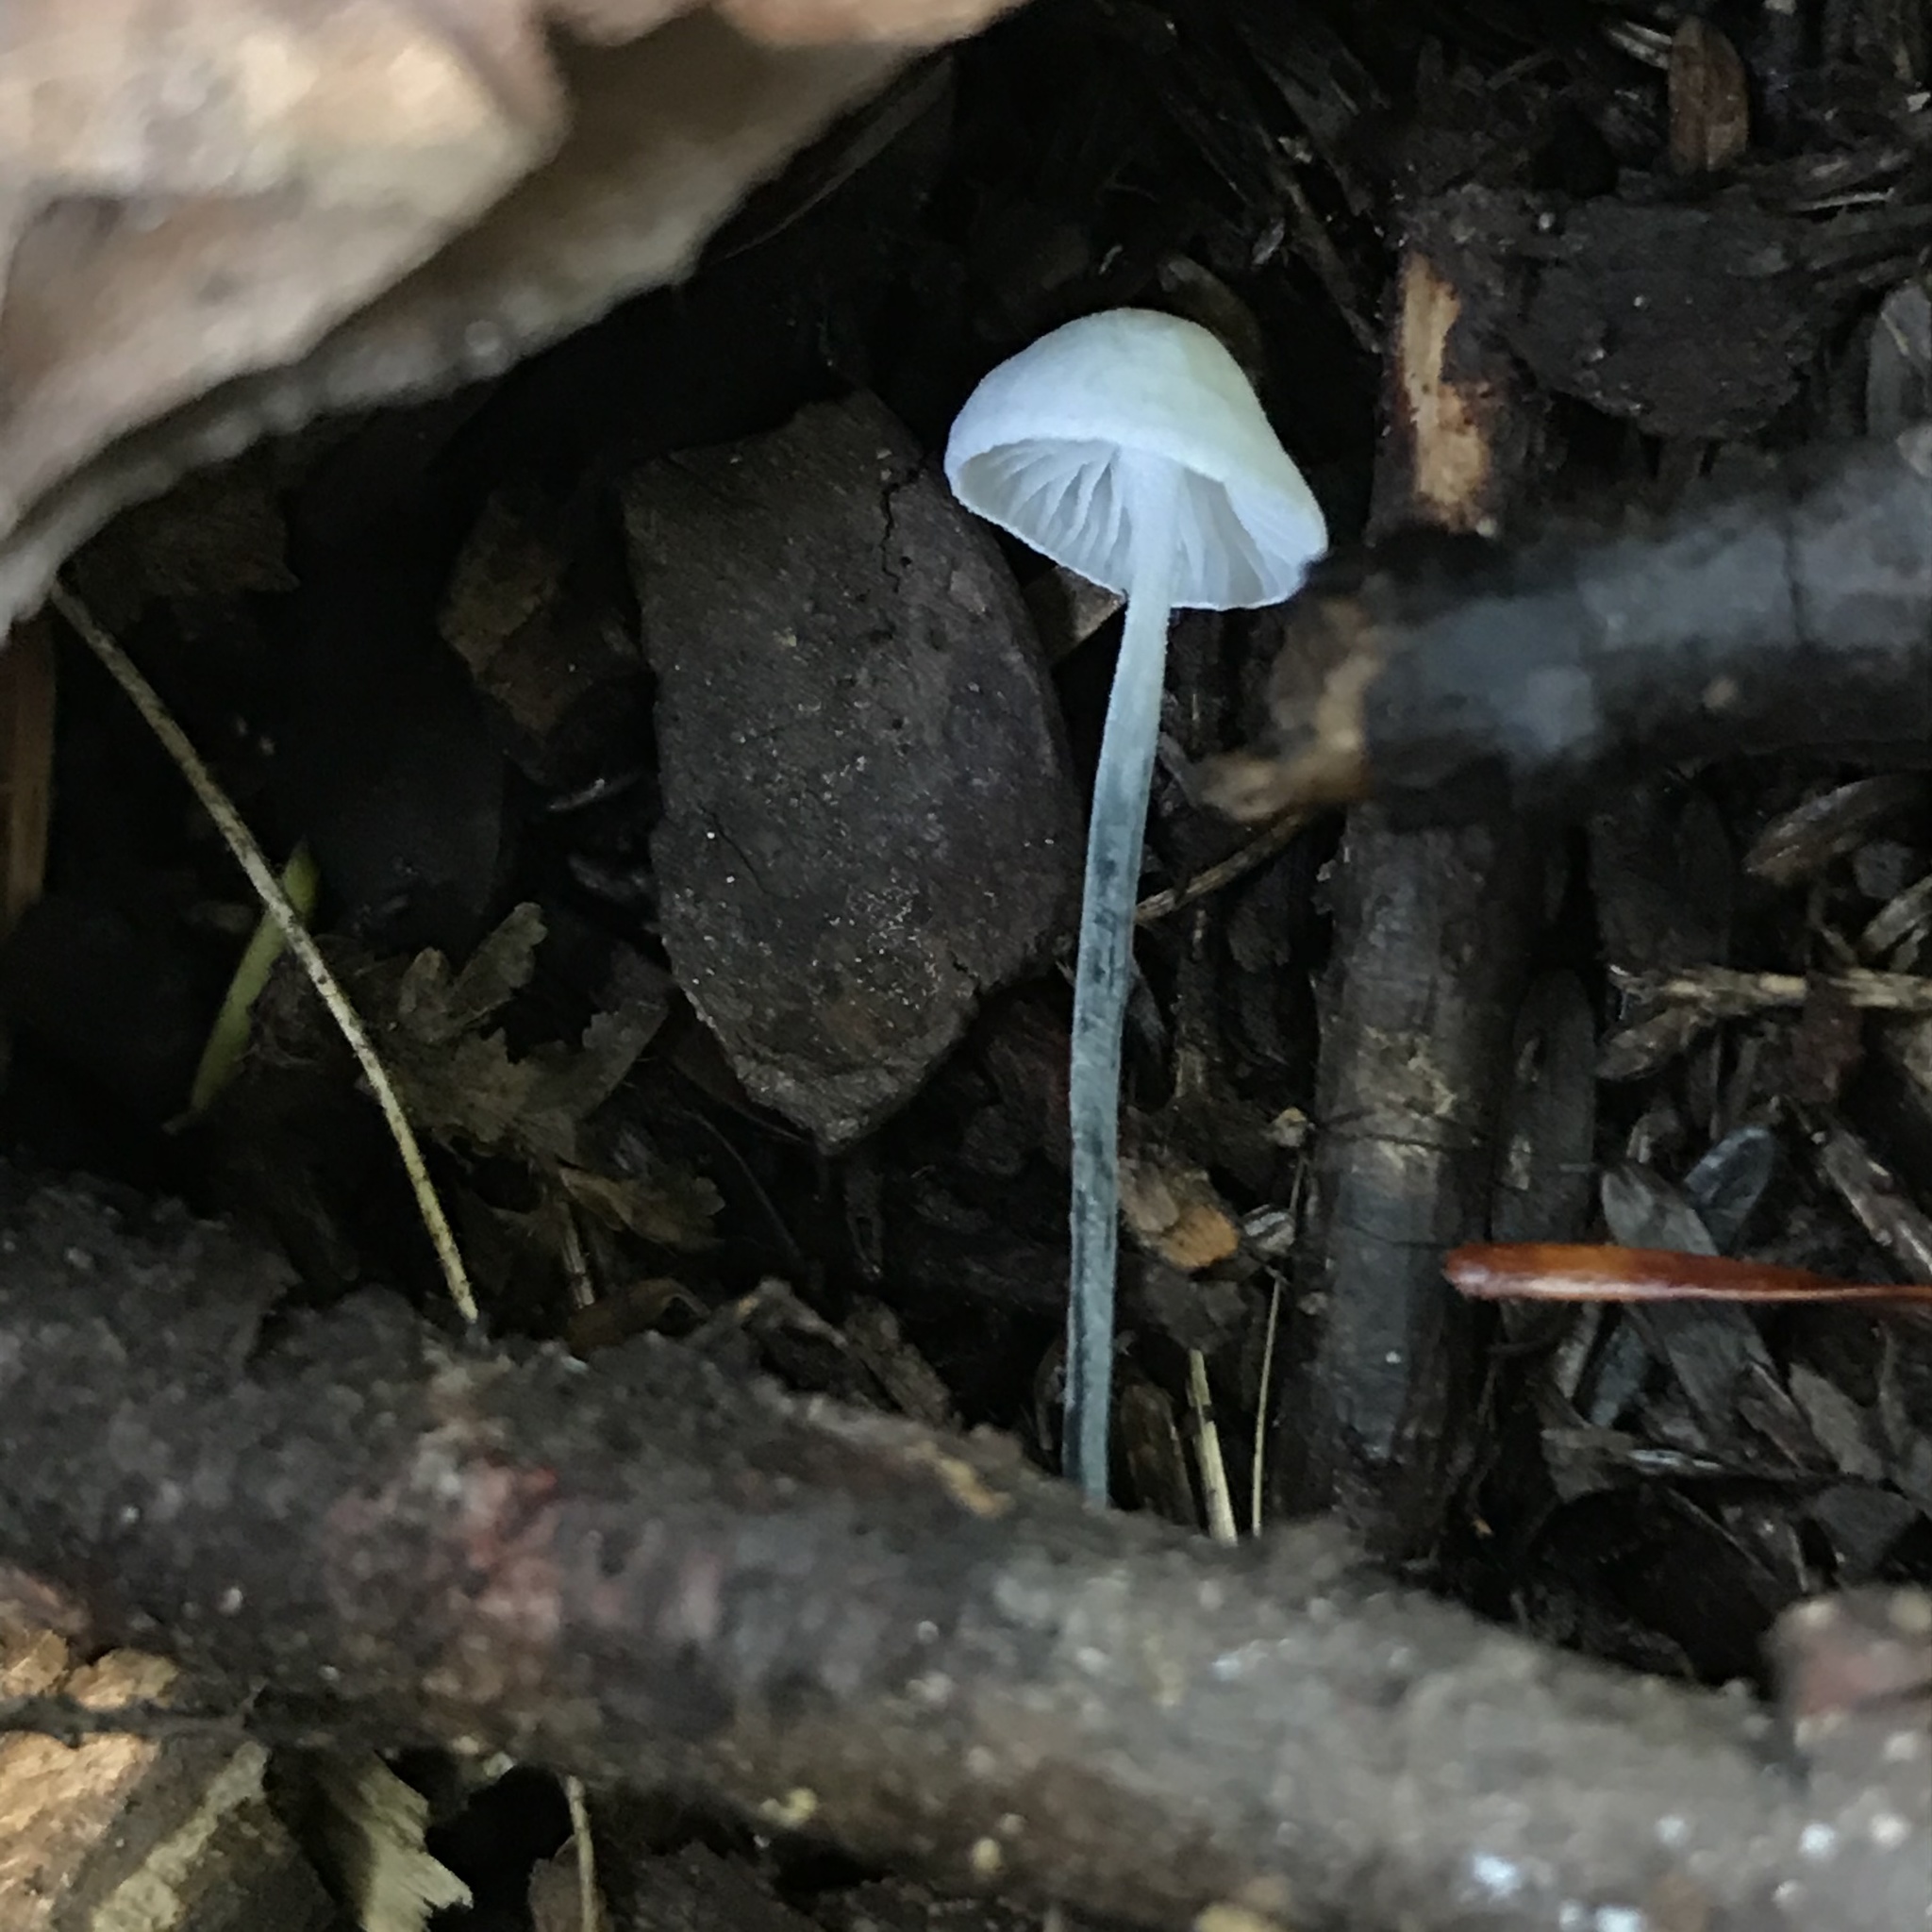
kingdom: Fungi
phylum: Basidiomycota
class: Agaricomycetes
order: Agaricales
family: Marasmiaceae
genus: Tetrapyrgos
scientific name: Tetrapyrgos nigripes
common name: Black-stalked marasmius
